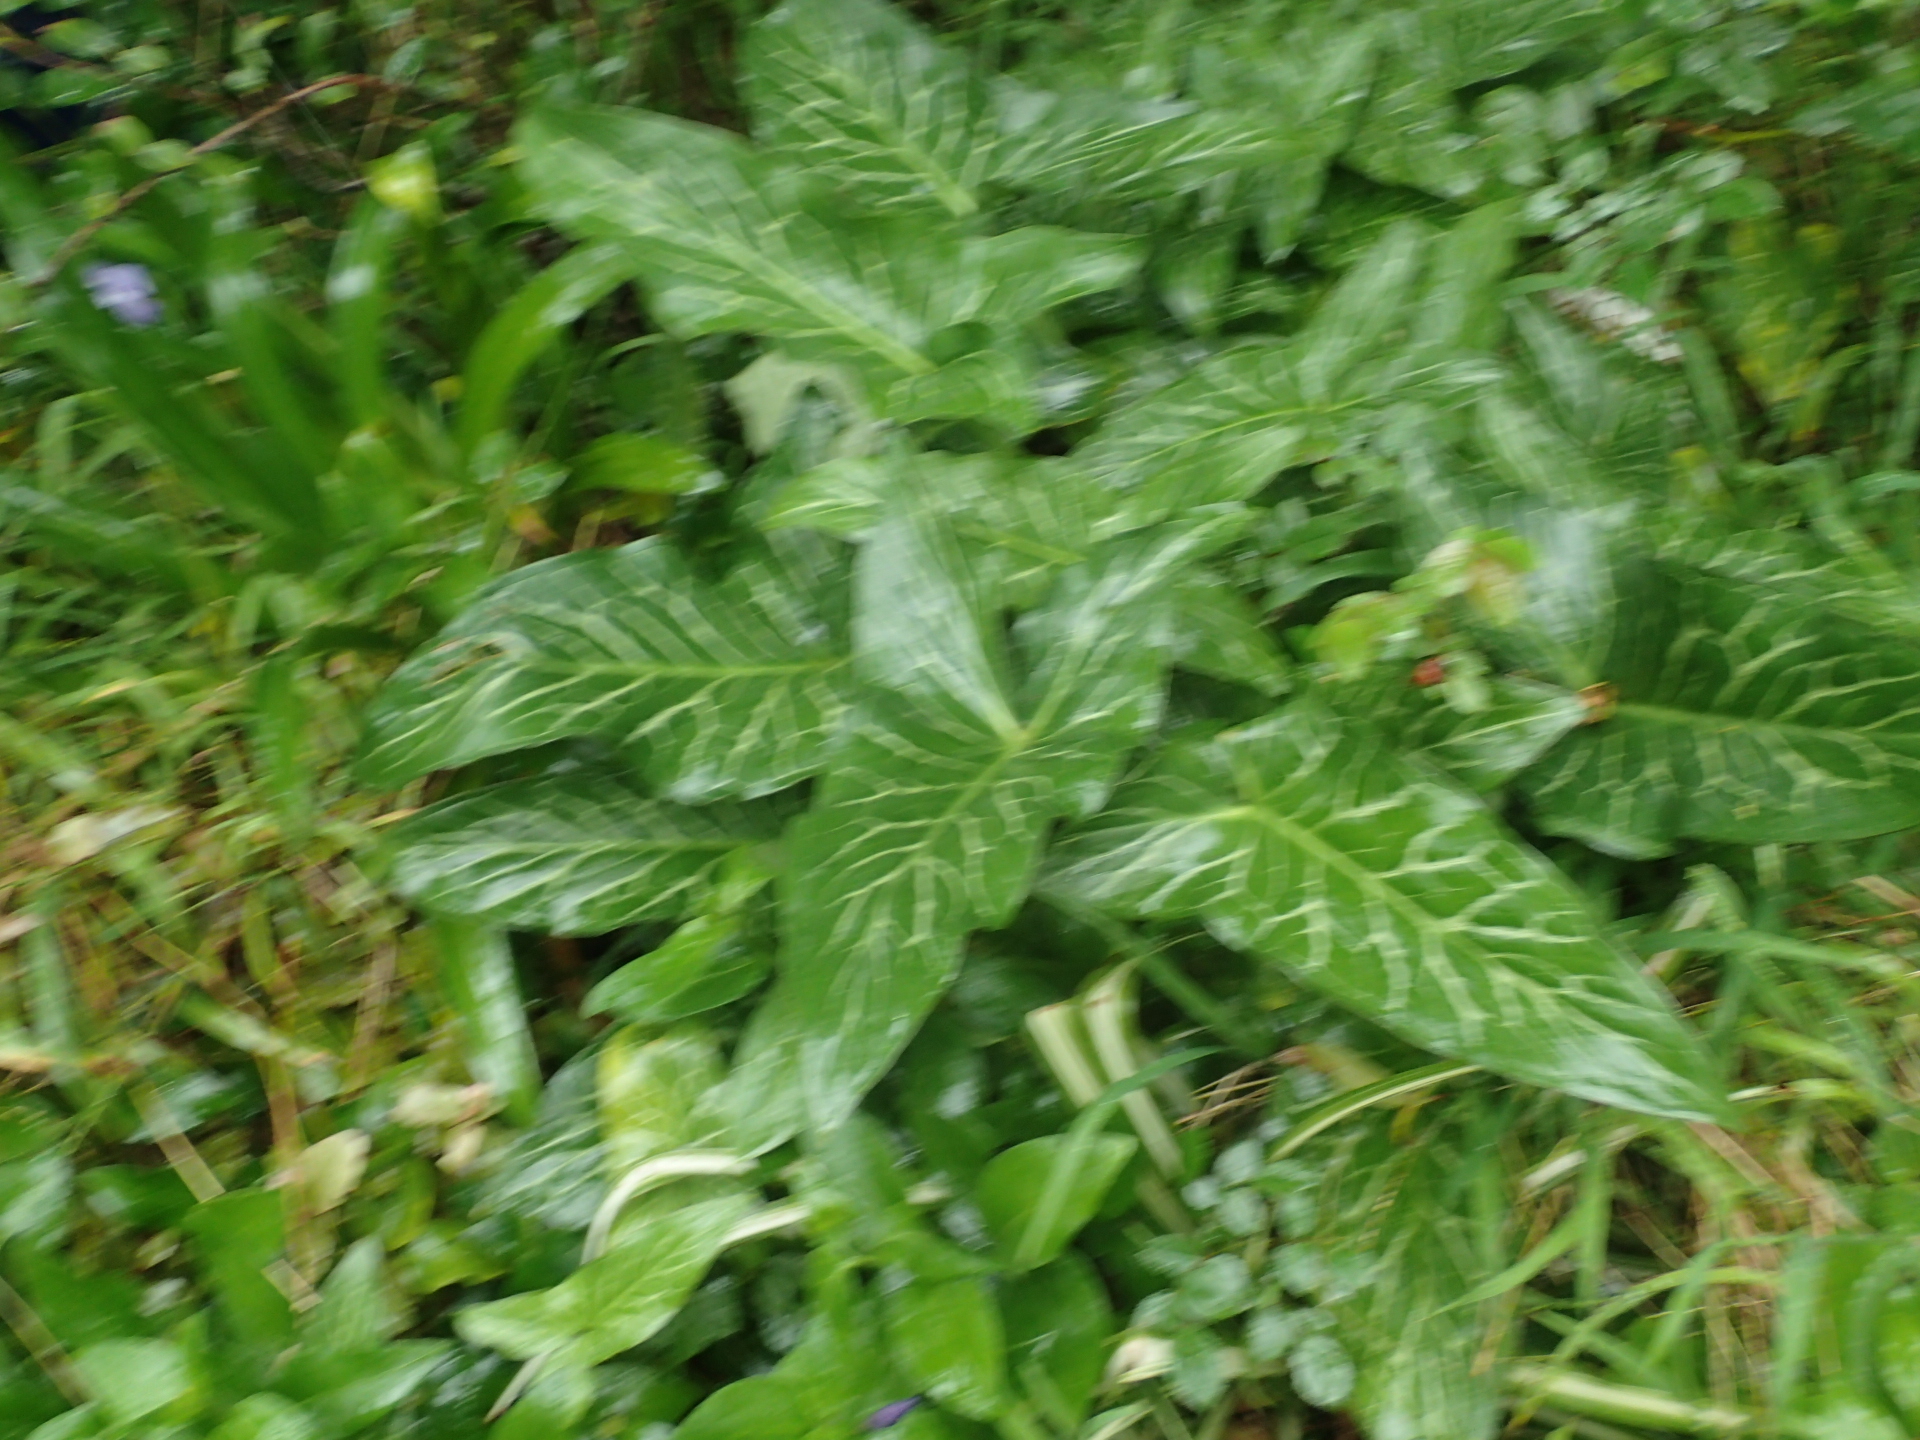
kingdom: Plantae
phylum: Tracheophyta
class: Liliopsida
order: Alismatales
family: Araceae
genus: Arum
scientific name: Arum italicum
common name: Italian lords-and-ladies
